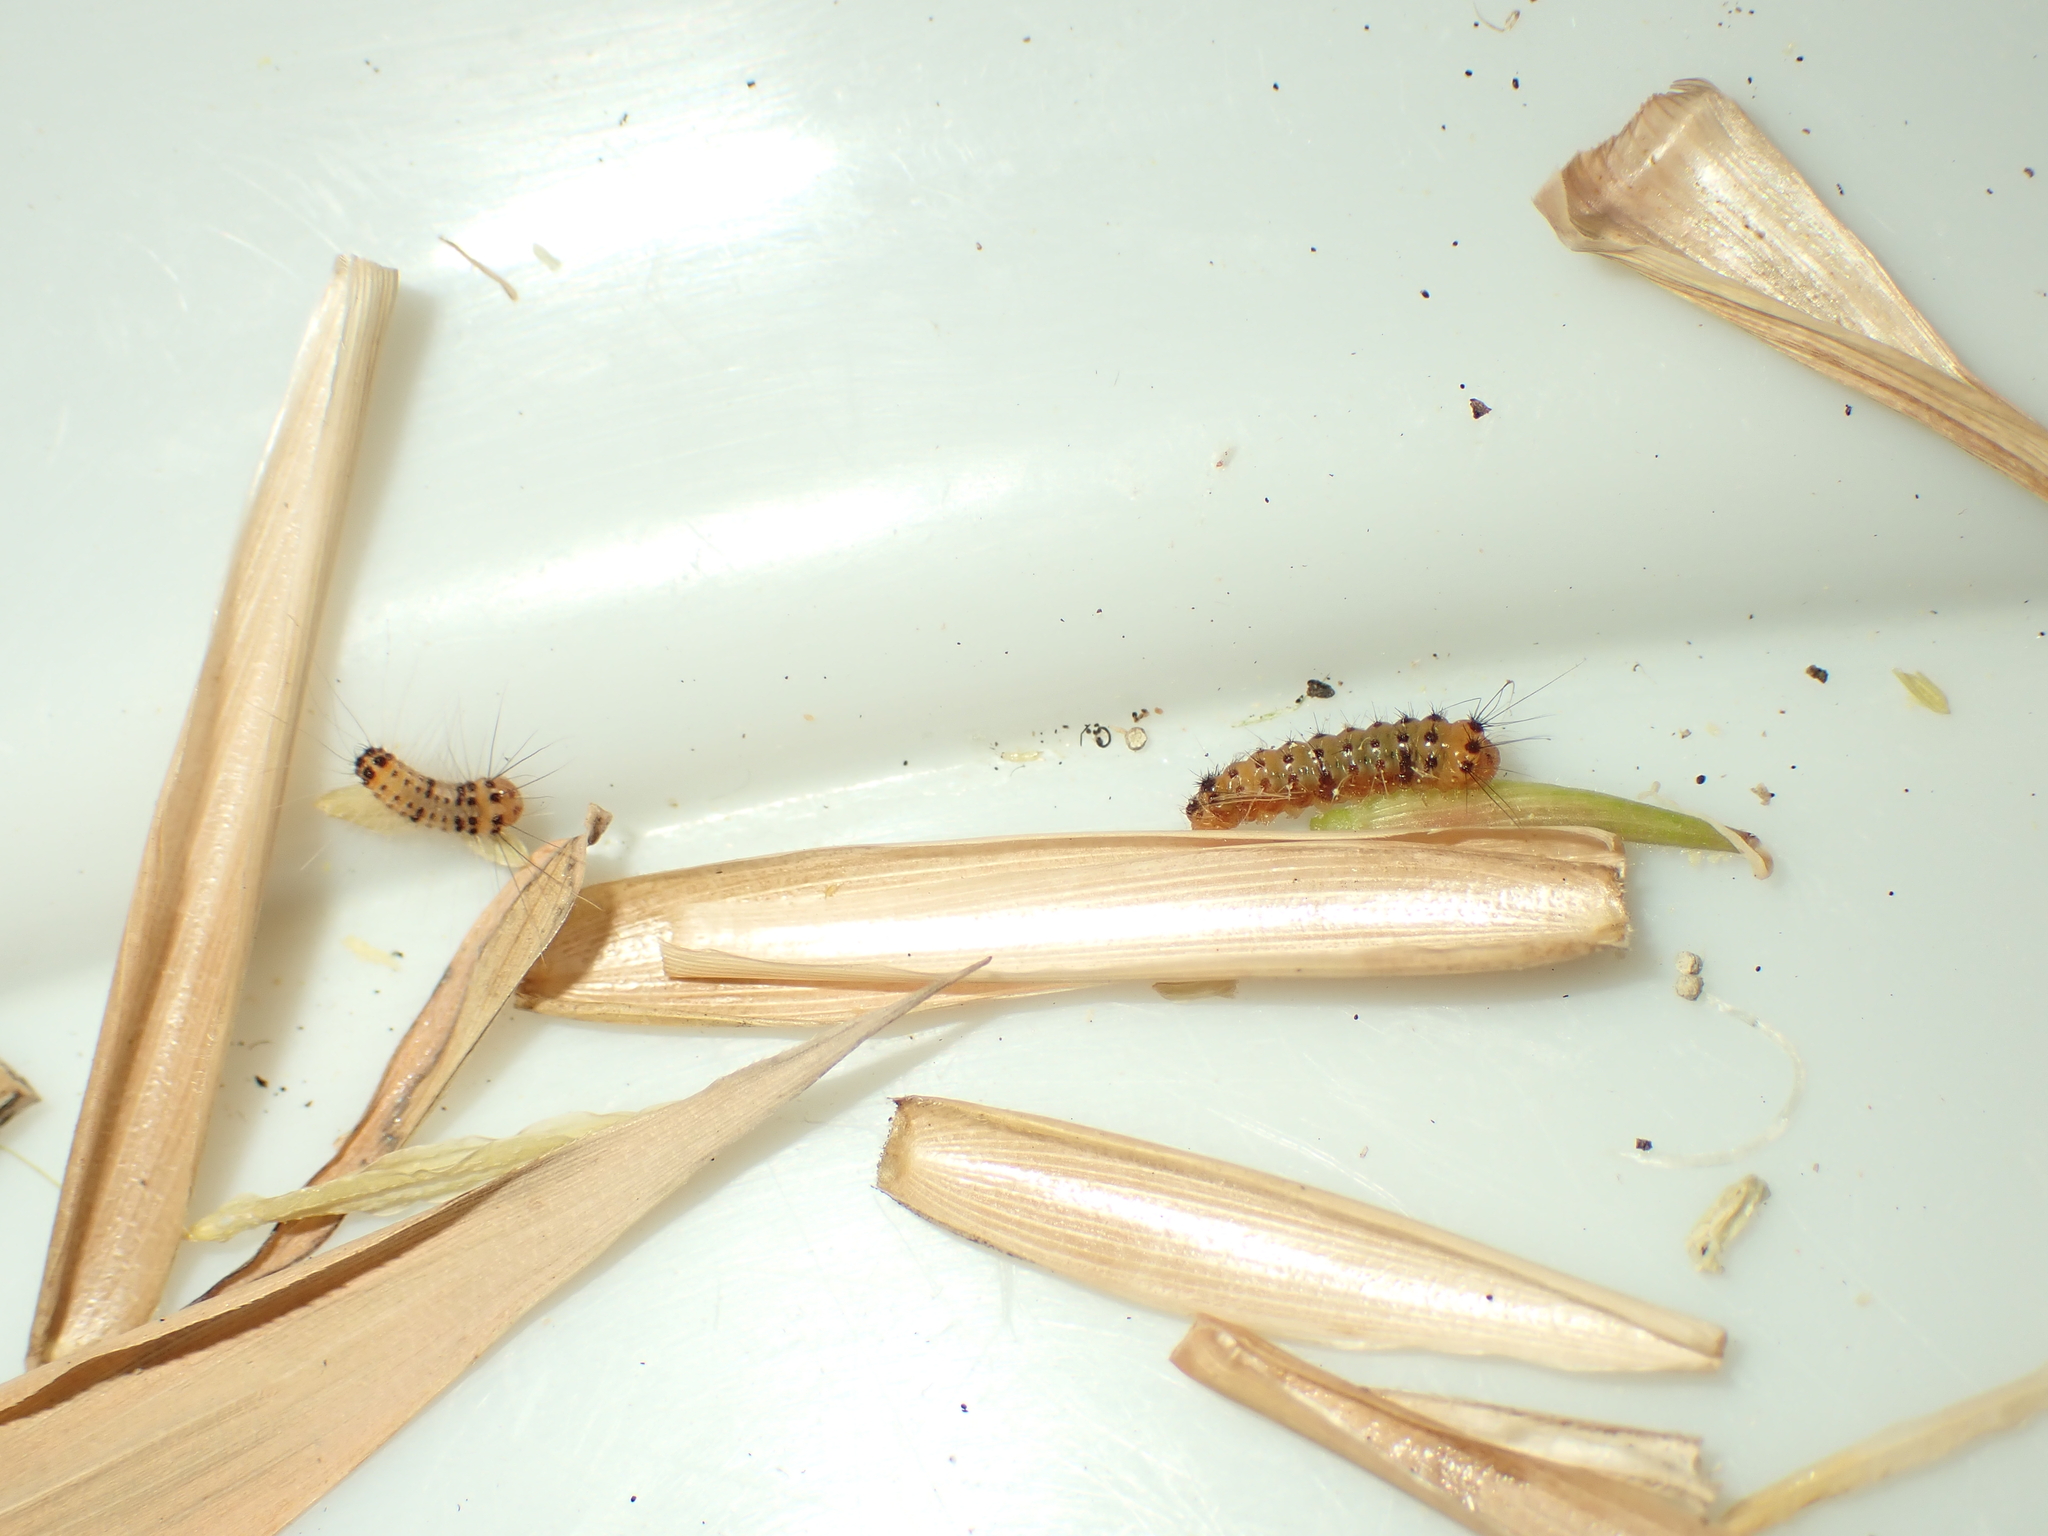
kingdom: Animalia
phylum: Arthropoda
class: Insecta
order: Lepidoptera
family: Zygaenidae
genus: Artona
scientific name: Artona martini
